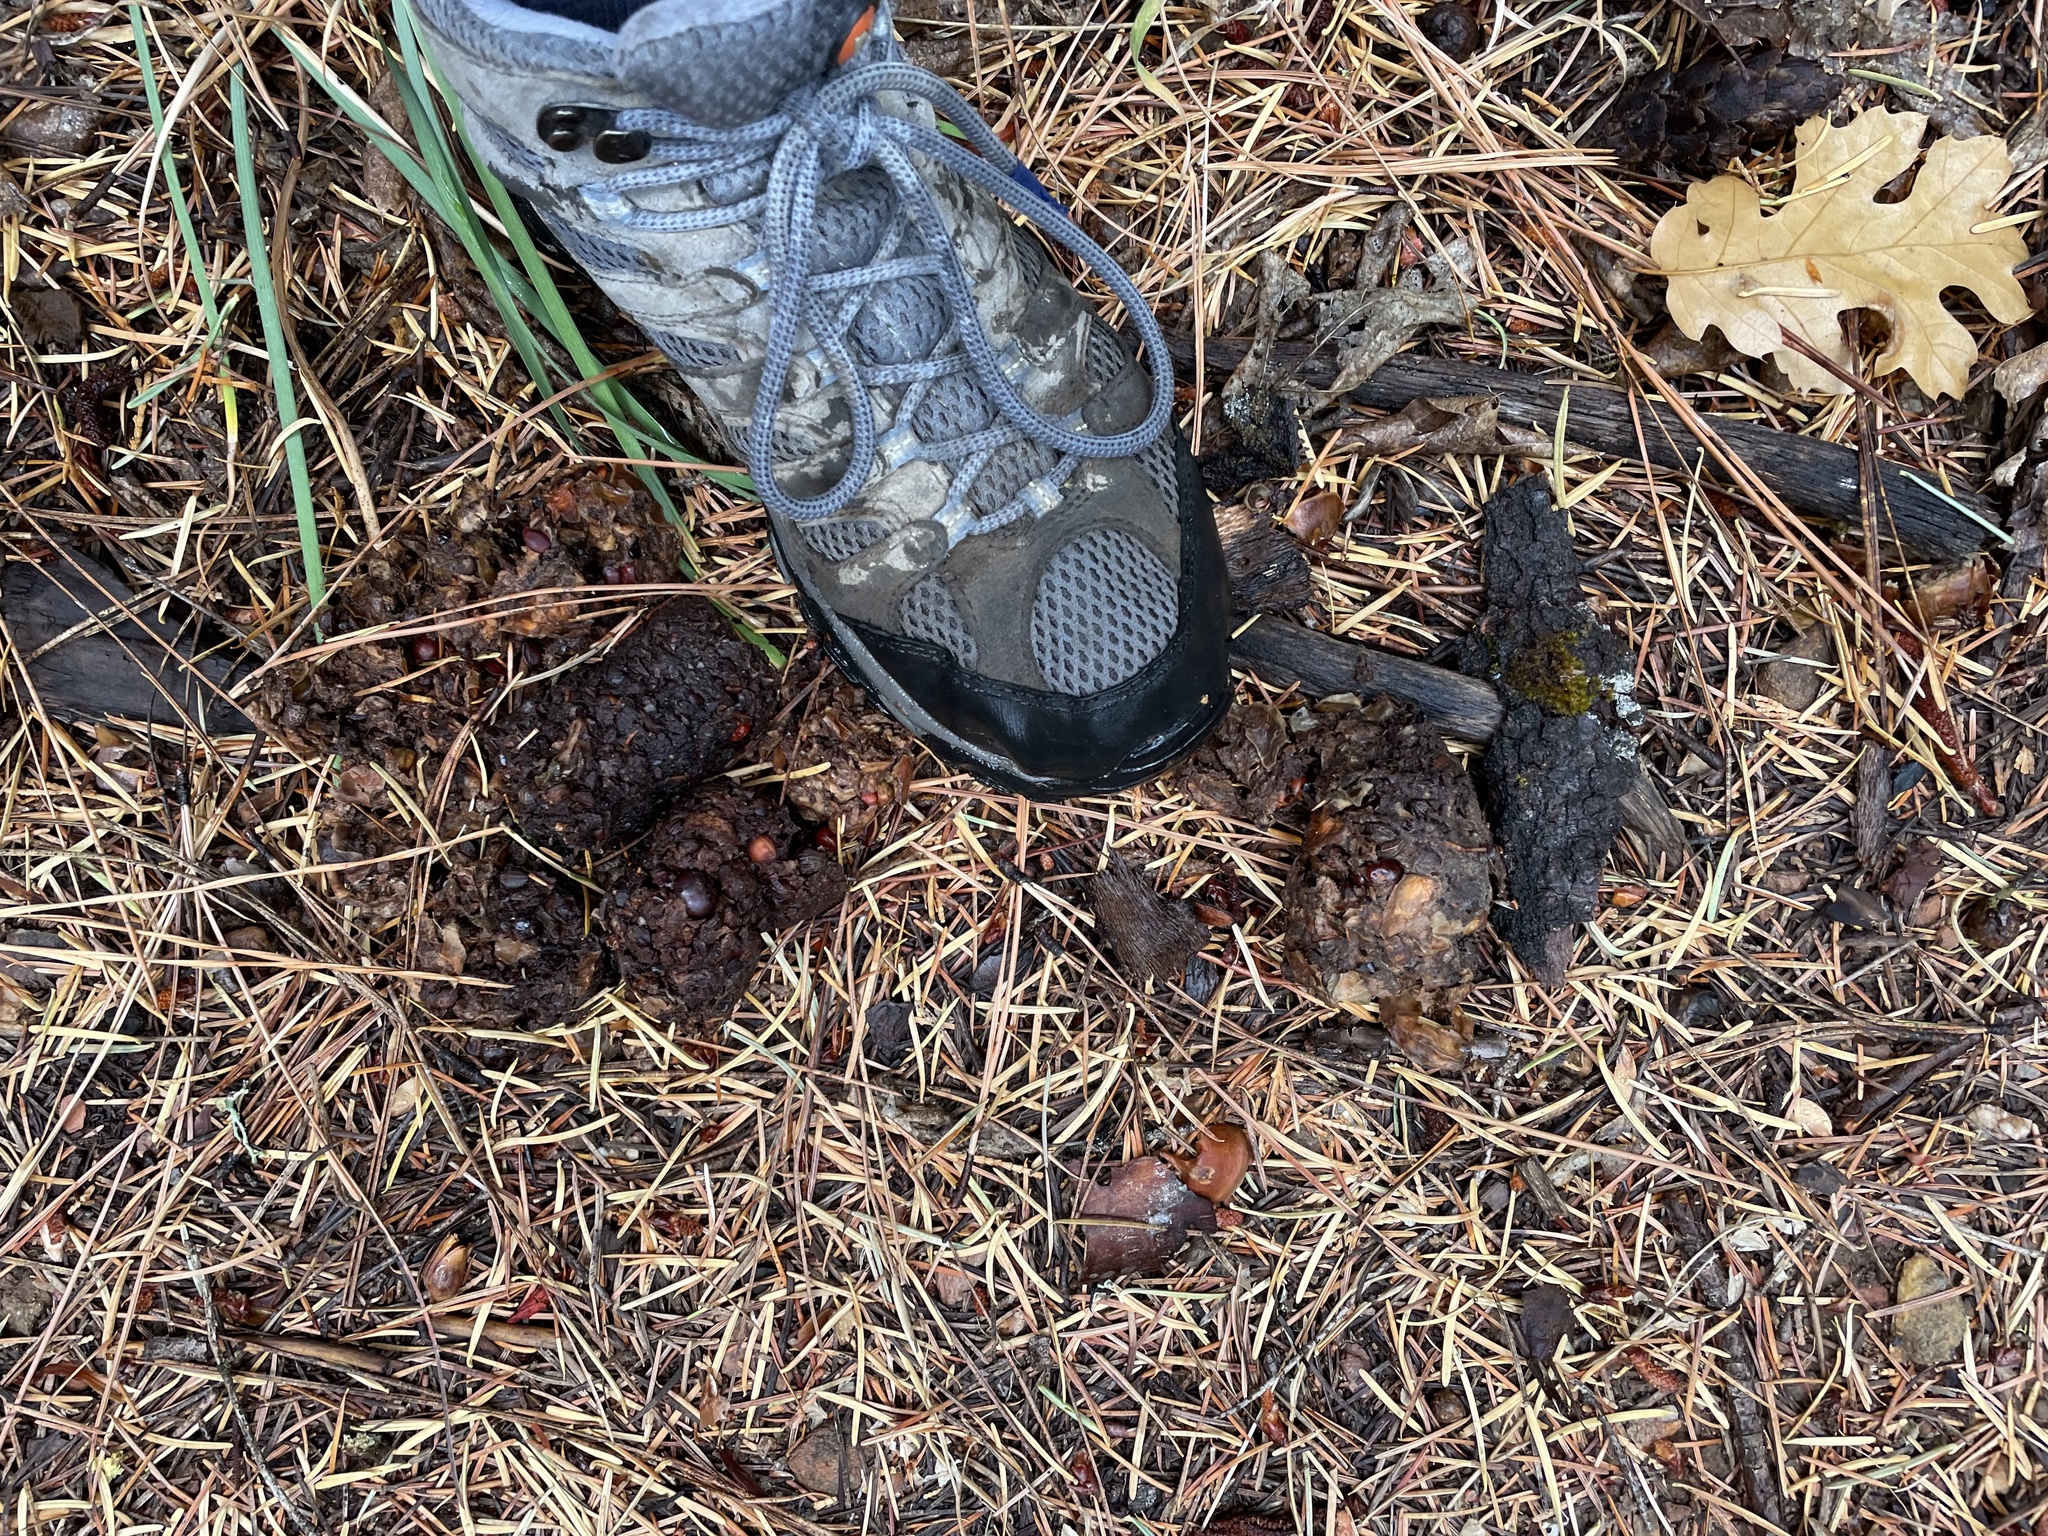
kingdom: Animalia
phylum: Chordata
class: Mammalia
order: Carnivora
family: Ursidae
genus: Ursus
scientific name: Ursus americanus
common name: American black bear
